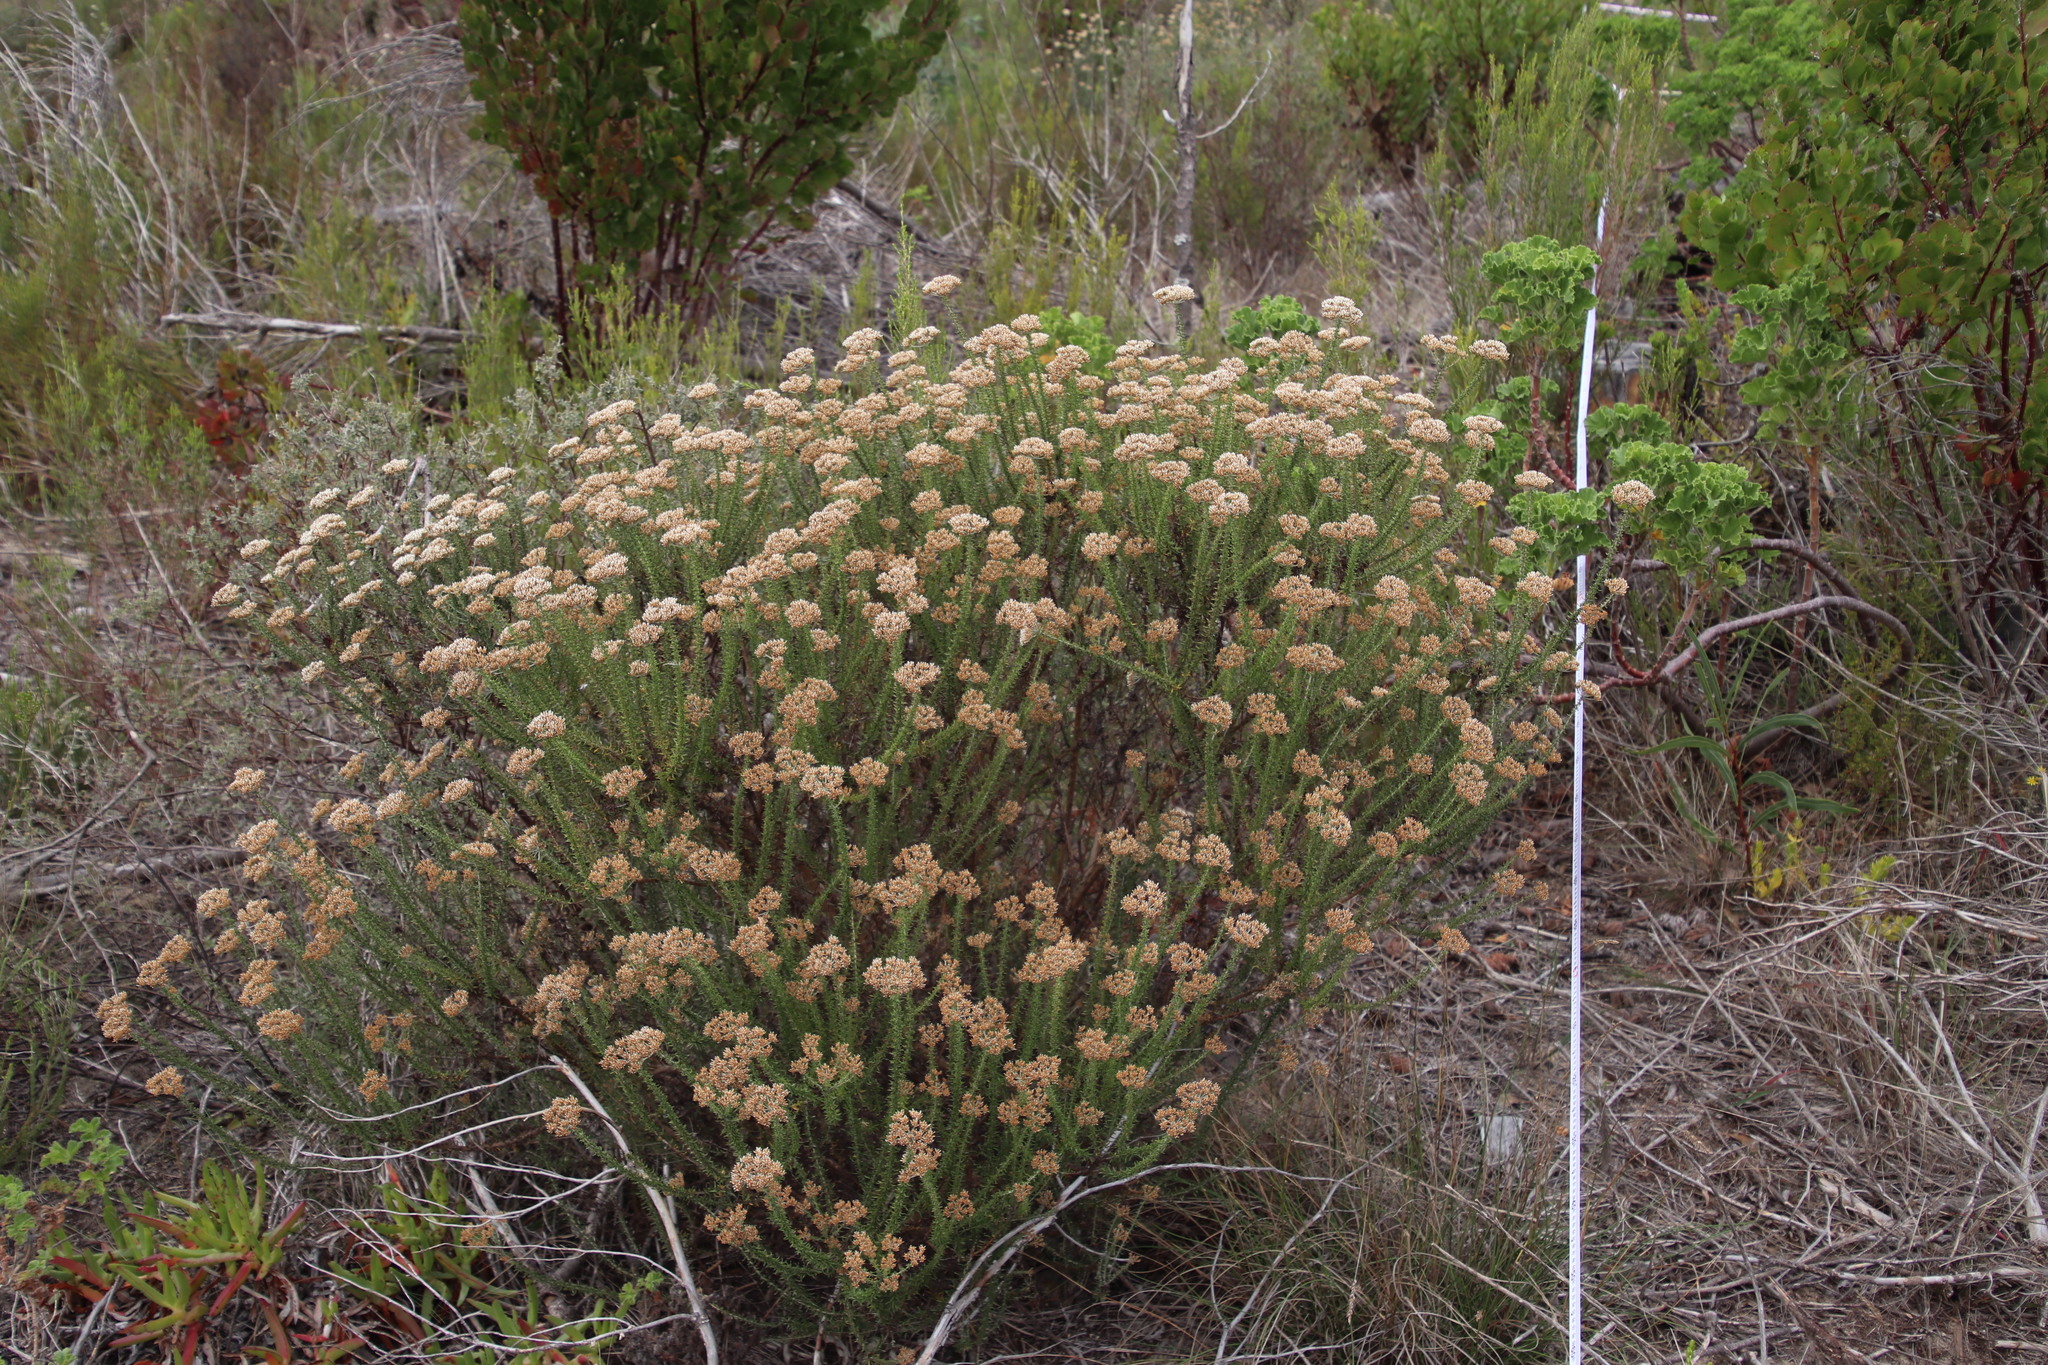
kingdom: Plantae
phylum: Tracheophyta
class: Magnoliopsida
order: Asterales
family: Asteraceae
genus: Metalasia
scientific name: Metalasia densa
